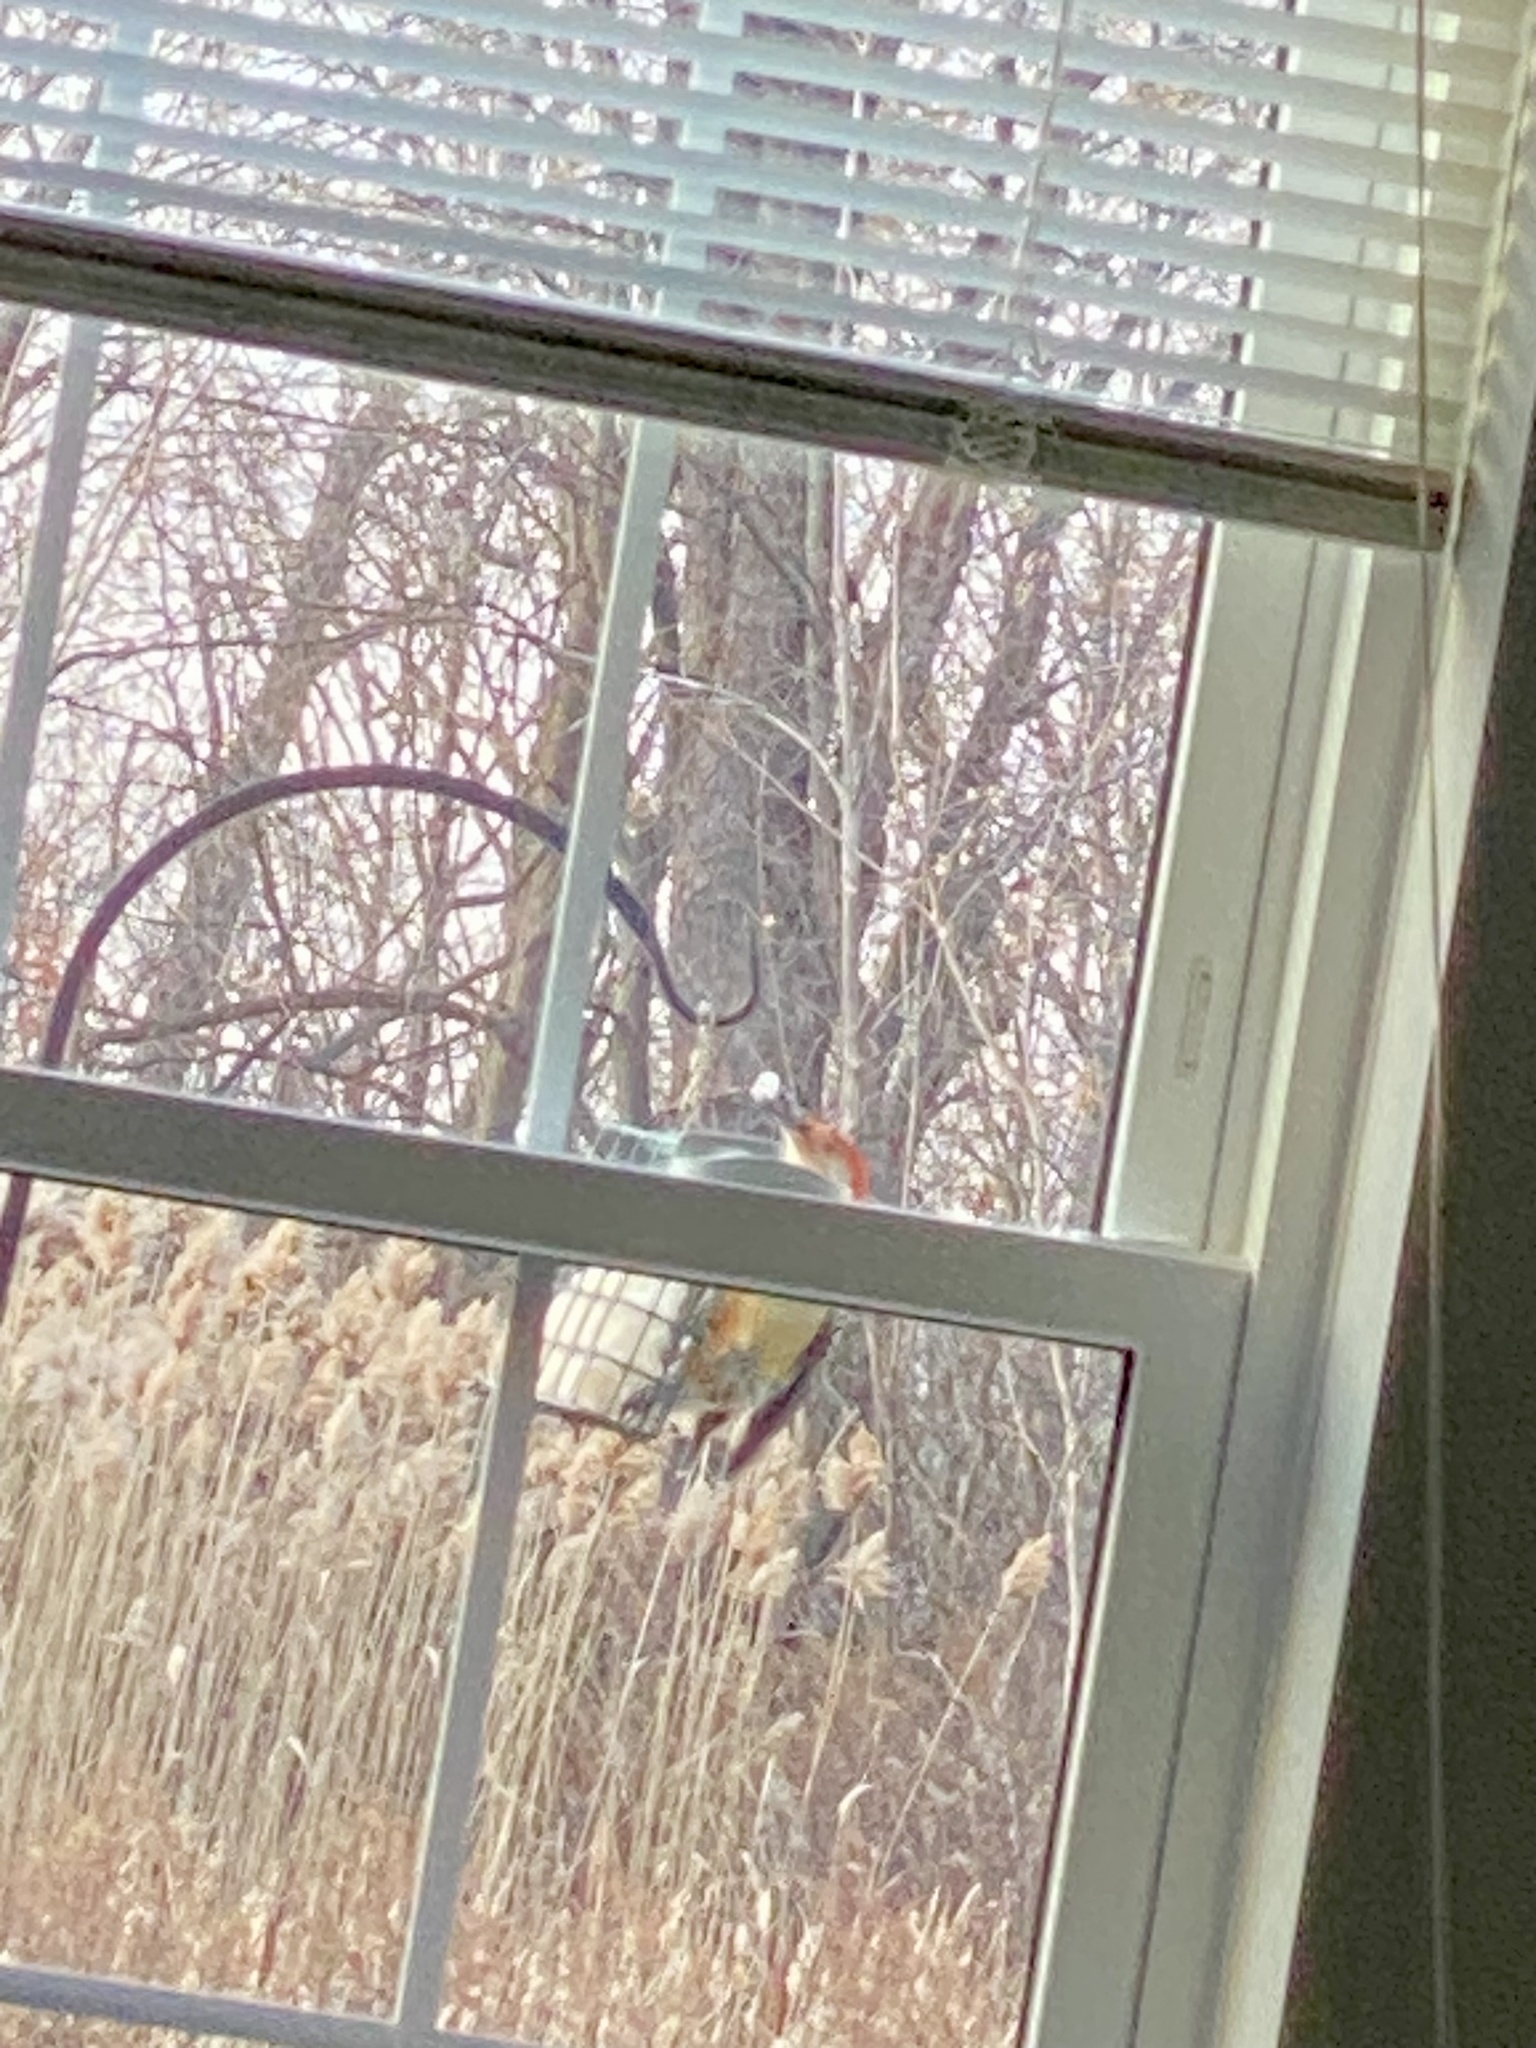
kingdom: Animalia
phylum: Chordata
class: Aves
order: Piciformes
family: Picidae
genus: Melanerpes
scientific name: Melanerpes carolinus
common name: Red-bellied woodpecker
